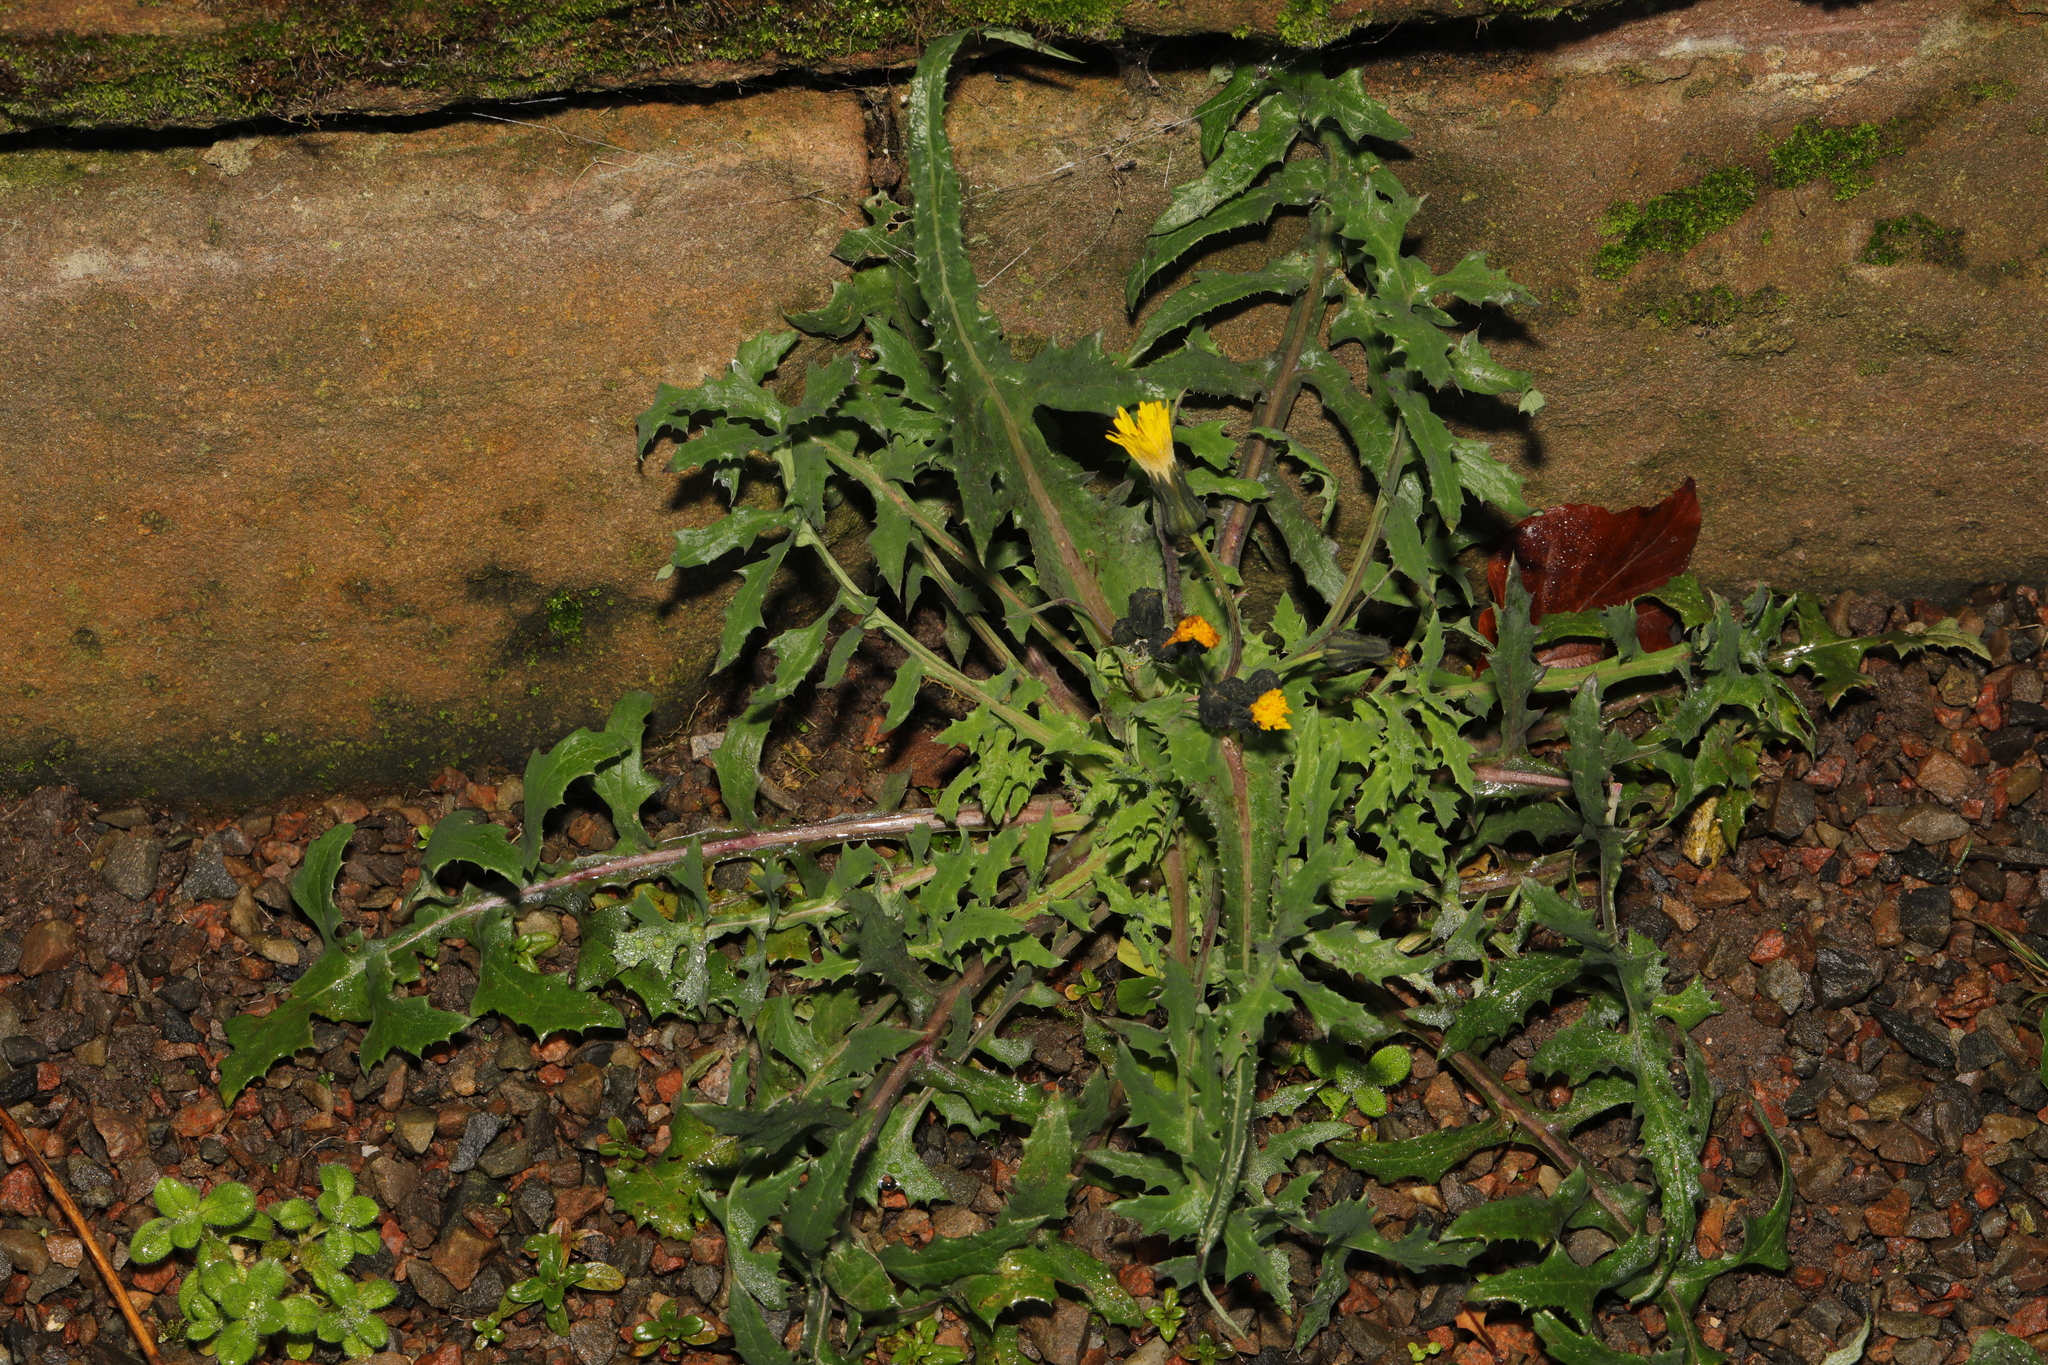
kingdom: Plantae
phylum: Tracheophyta
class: Magnoliopsida
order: Asterales
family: Asteraceae
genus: Sonchus
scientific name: Sonchus asper
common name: Prickly sow-thistle
